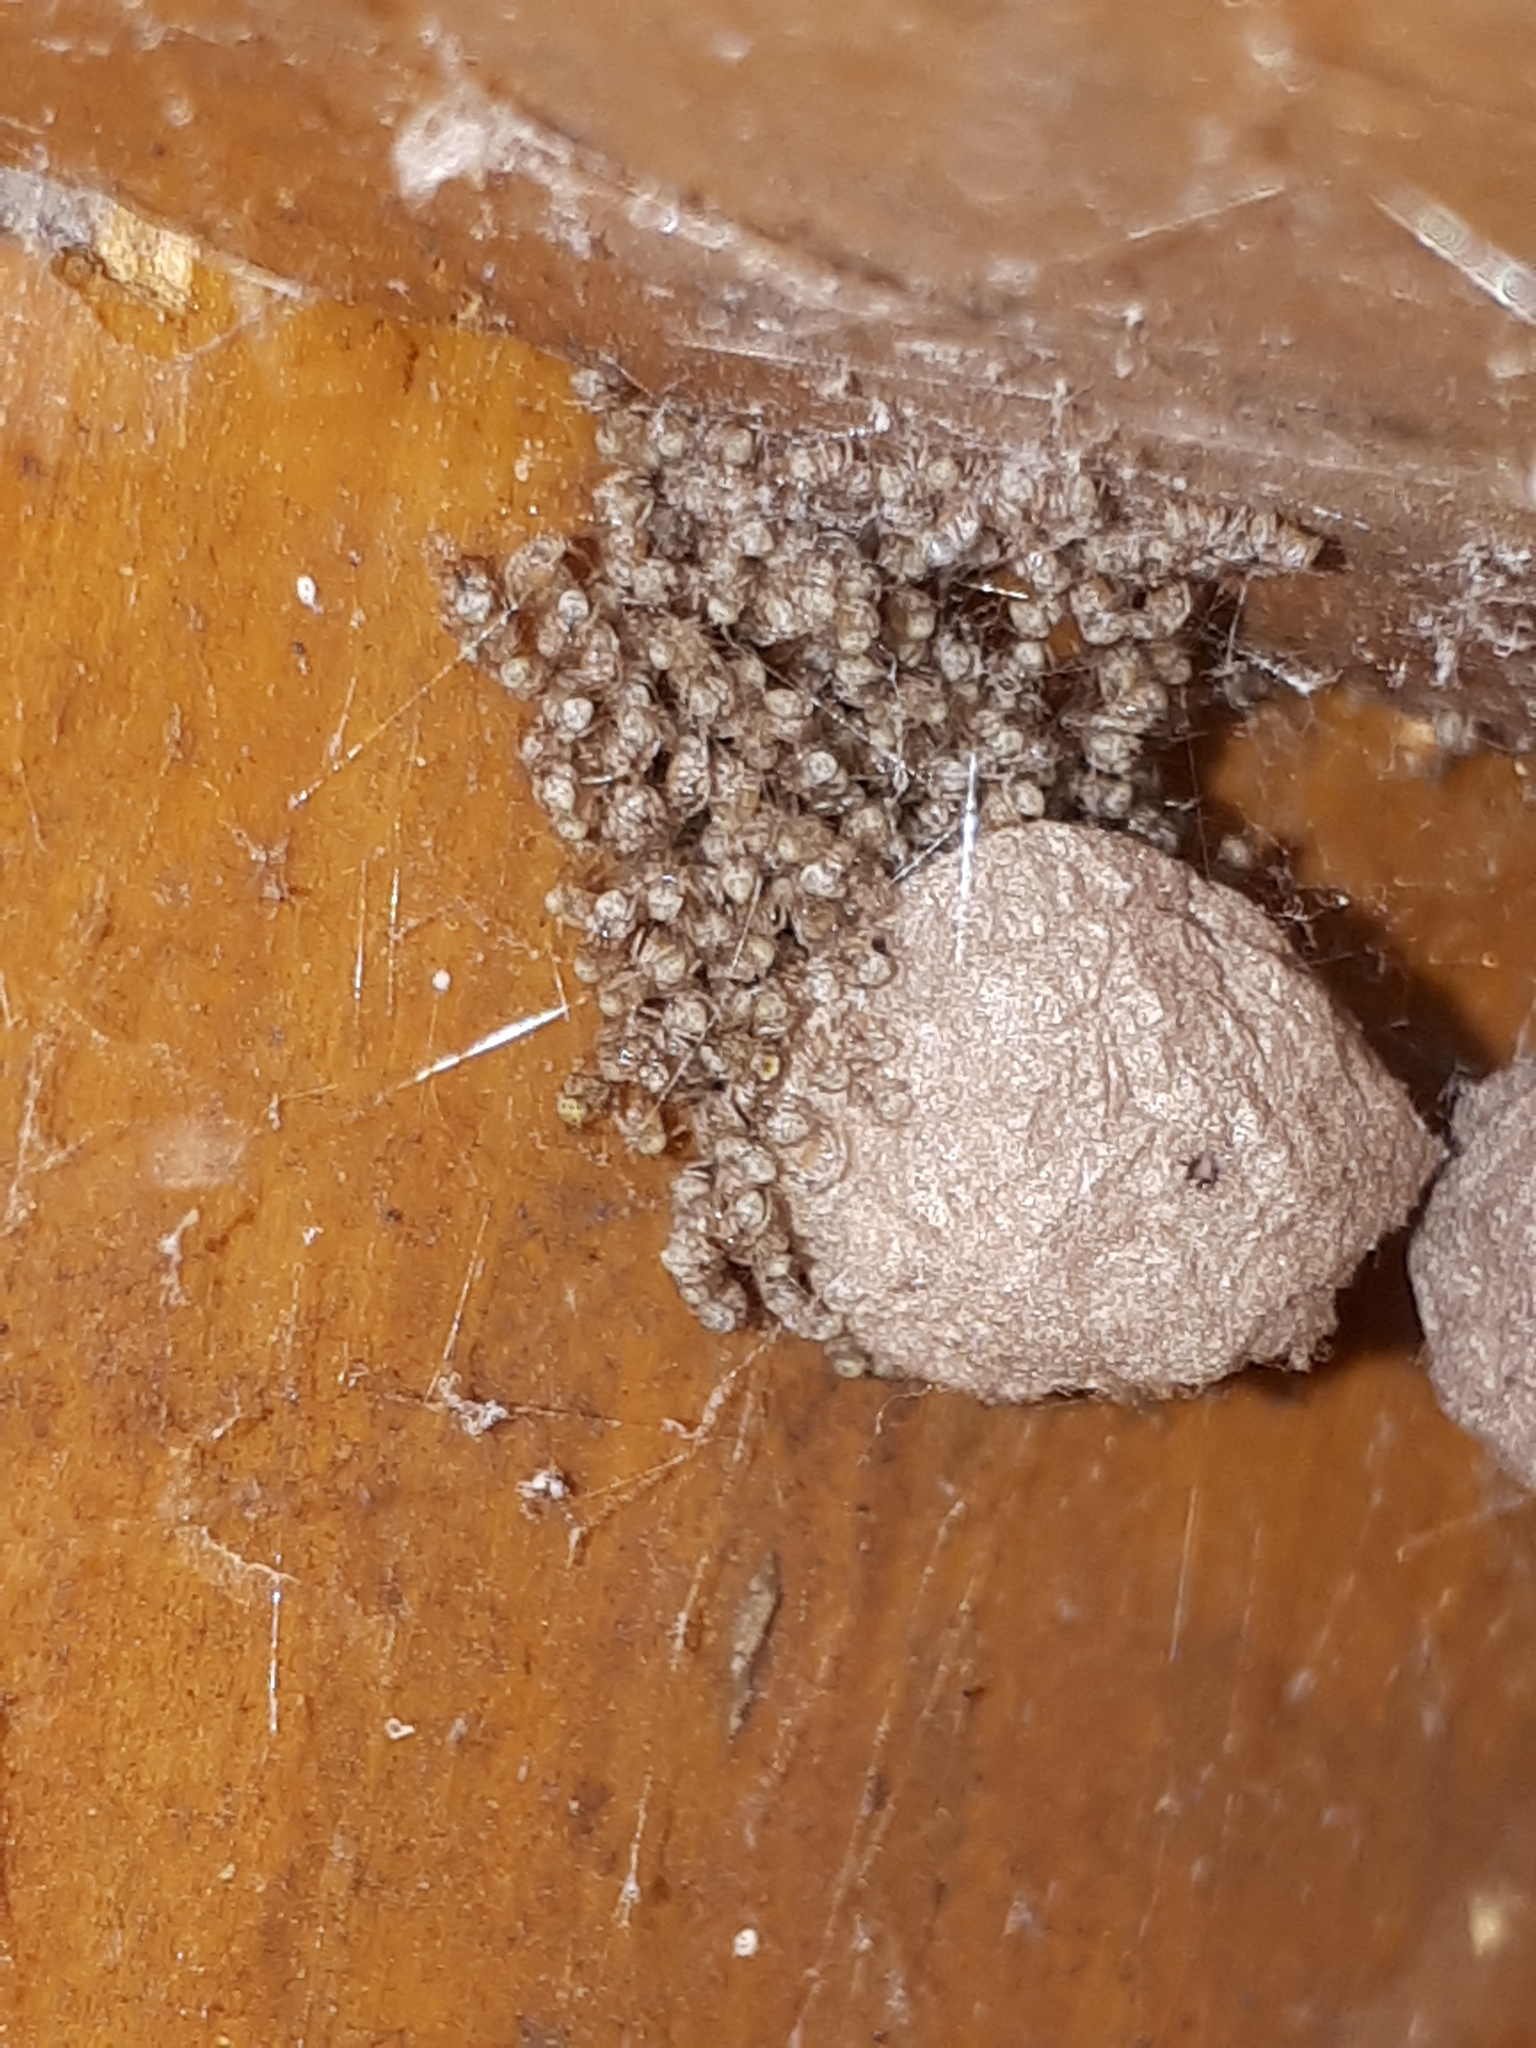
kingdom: Animalia
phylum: Arthropoda
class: Arachnida
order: Araneae
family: Theridiidae
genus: Parasteatoda
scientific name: Parasteatoda tepidariorum
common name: Common house spider
